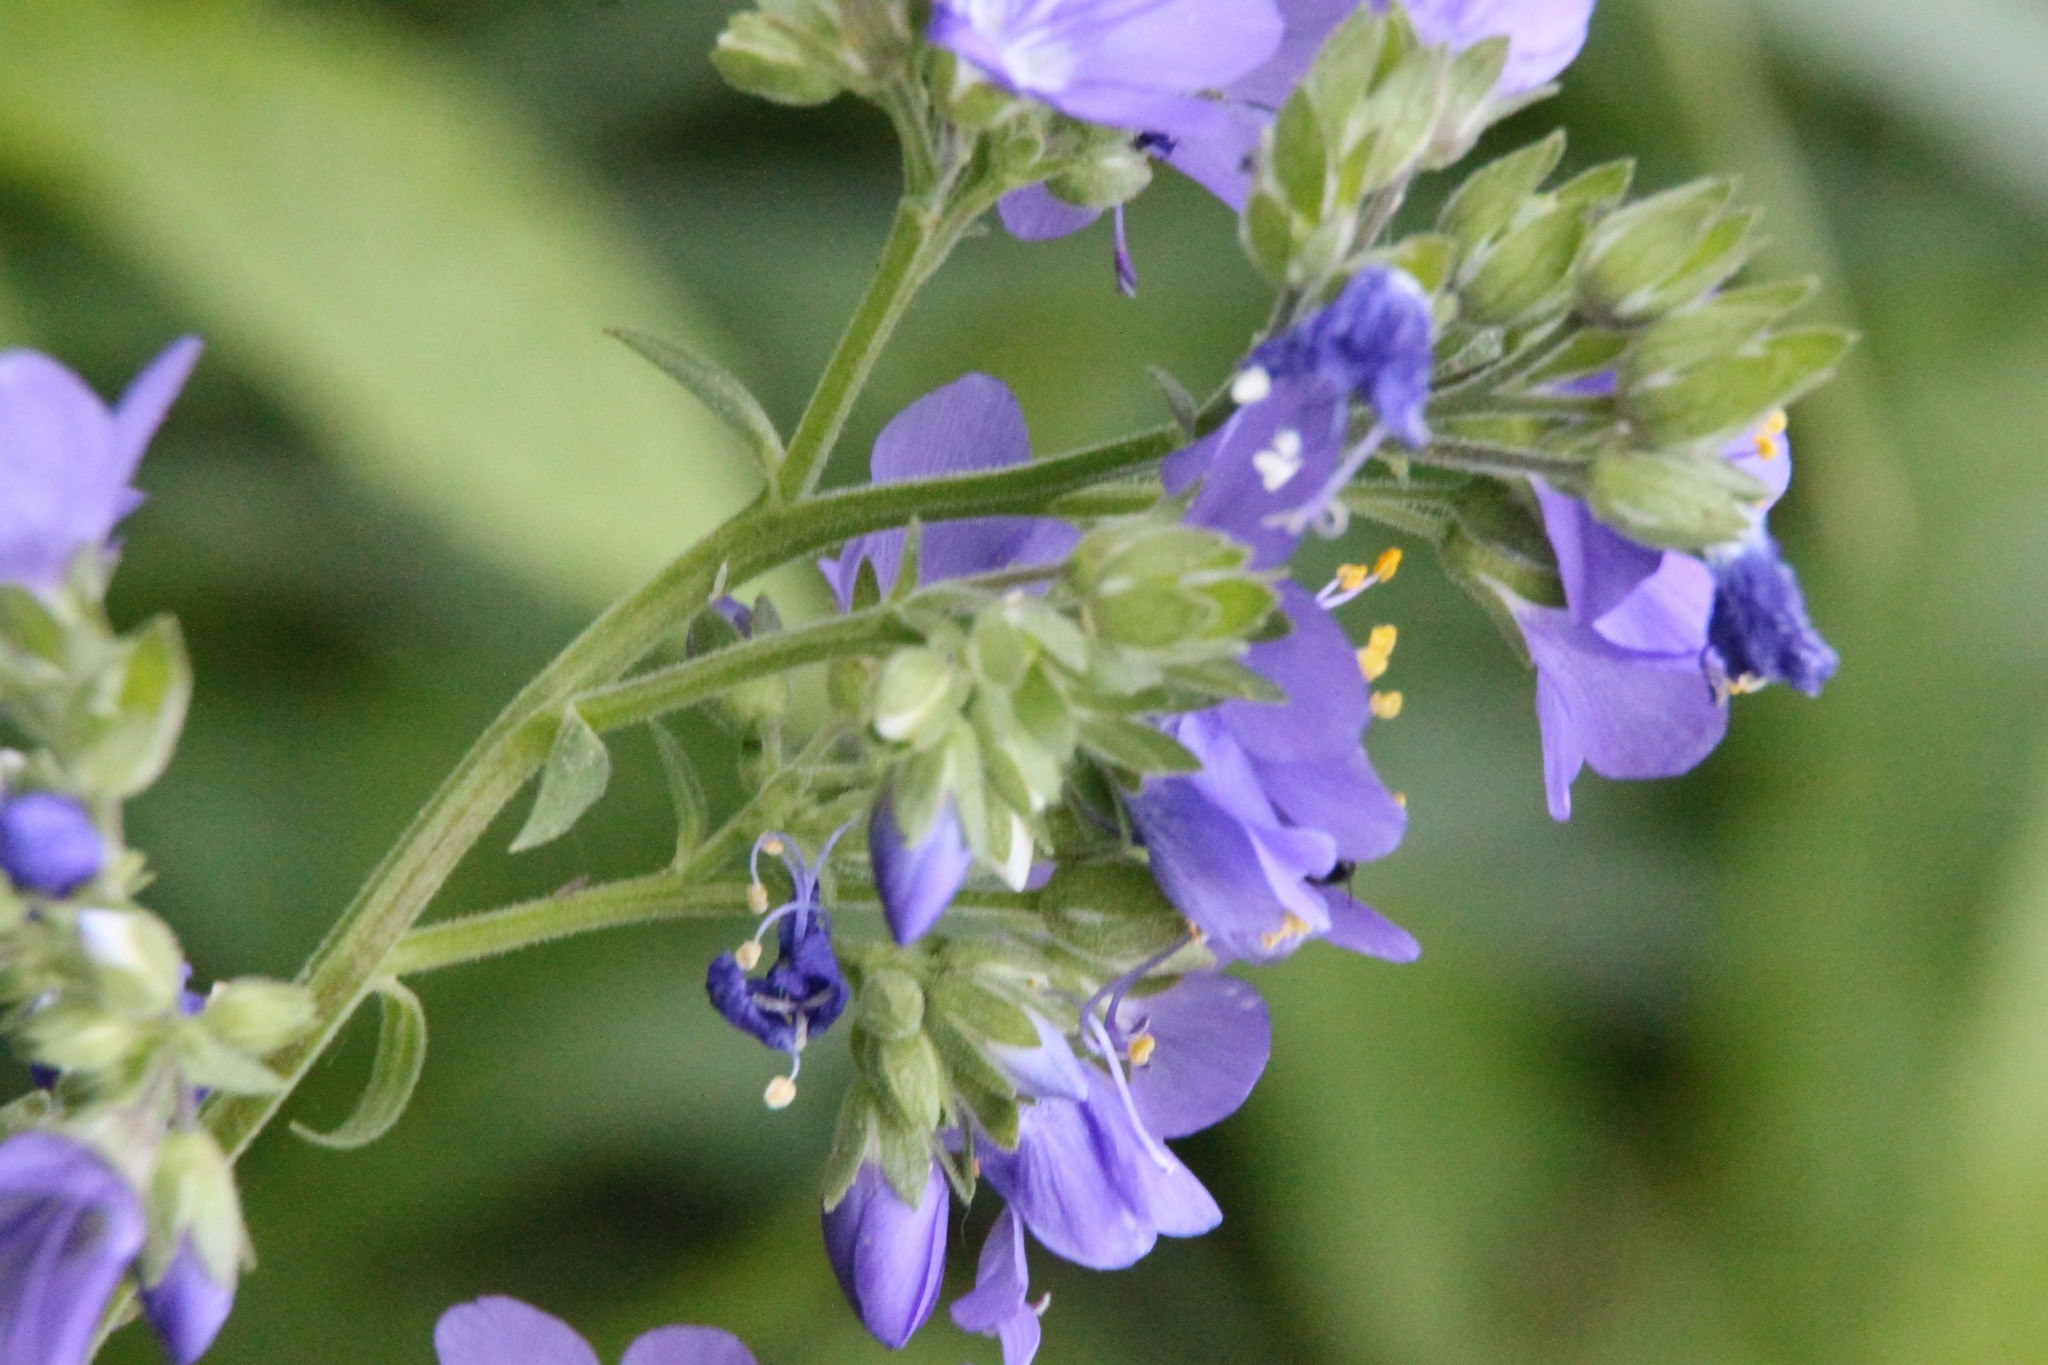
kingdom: Plantae
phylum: Tracheophyta
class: Magnoliopsida
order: Ericales
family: Polemoniaceae
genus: Polemonium
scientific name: Polemonium caeruleum
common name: Jacob's-ladder
